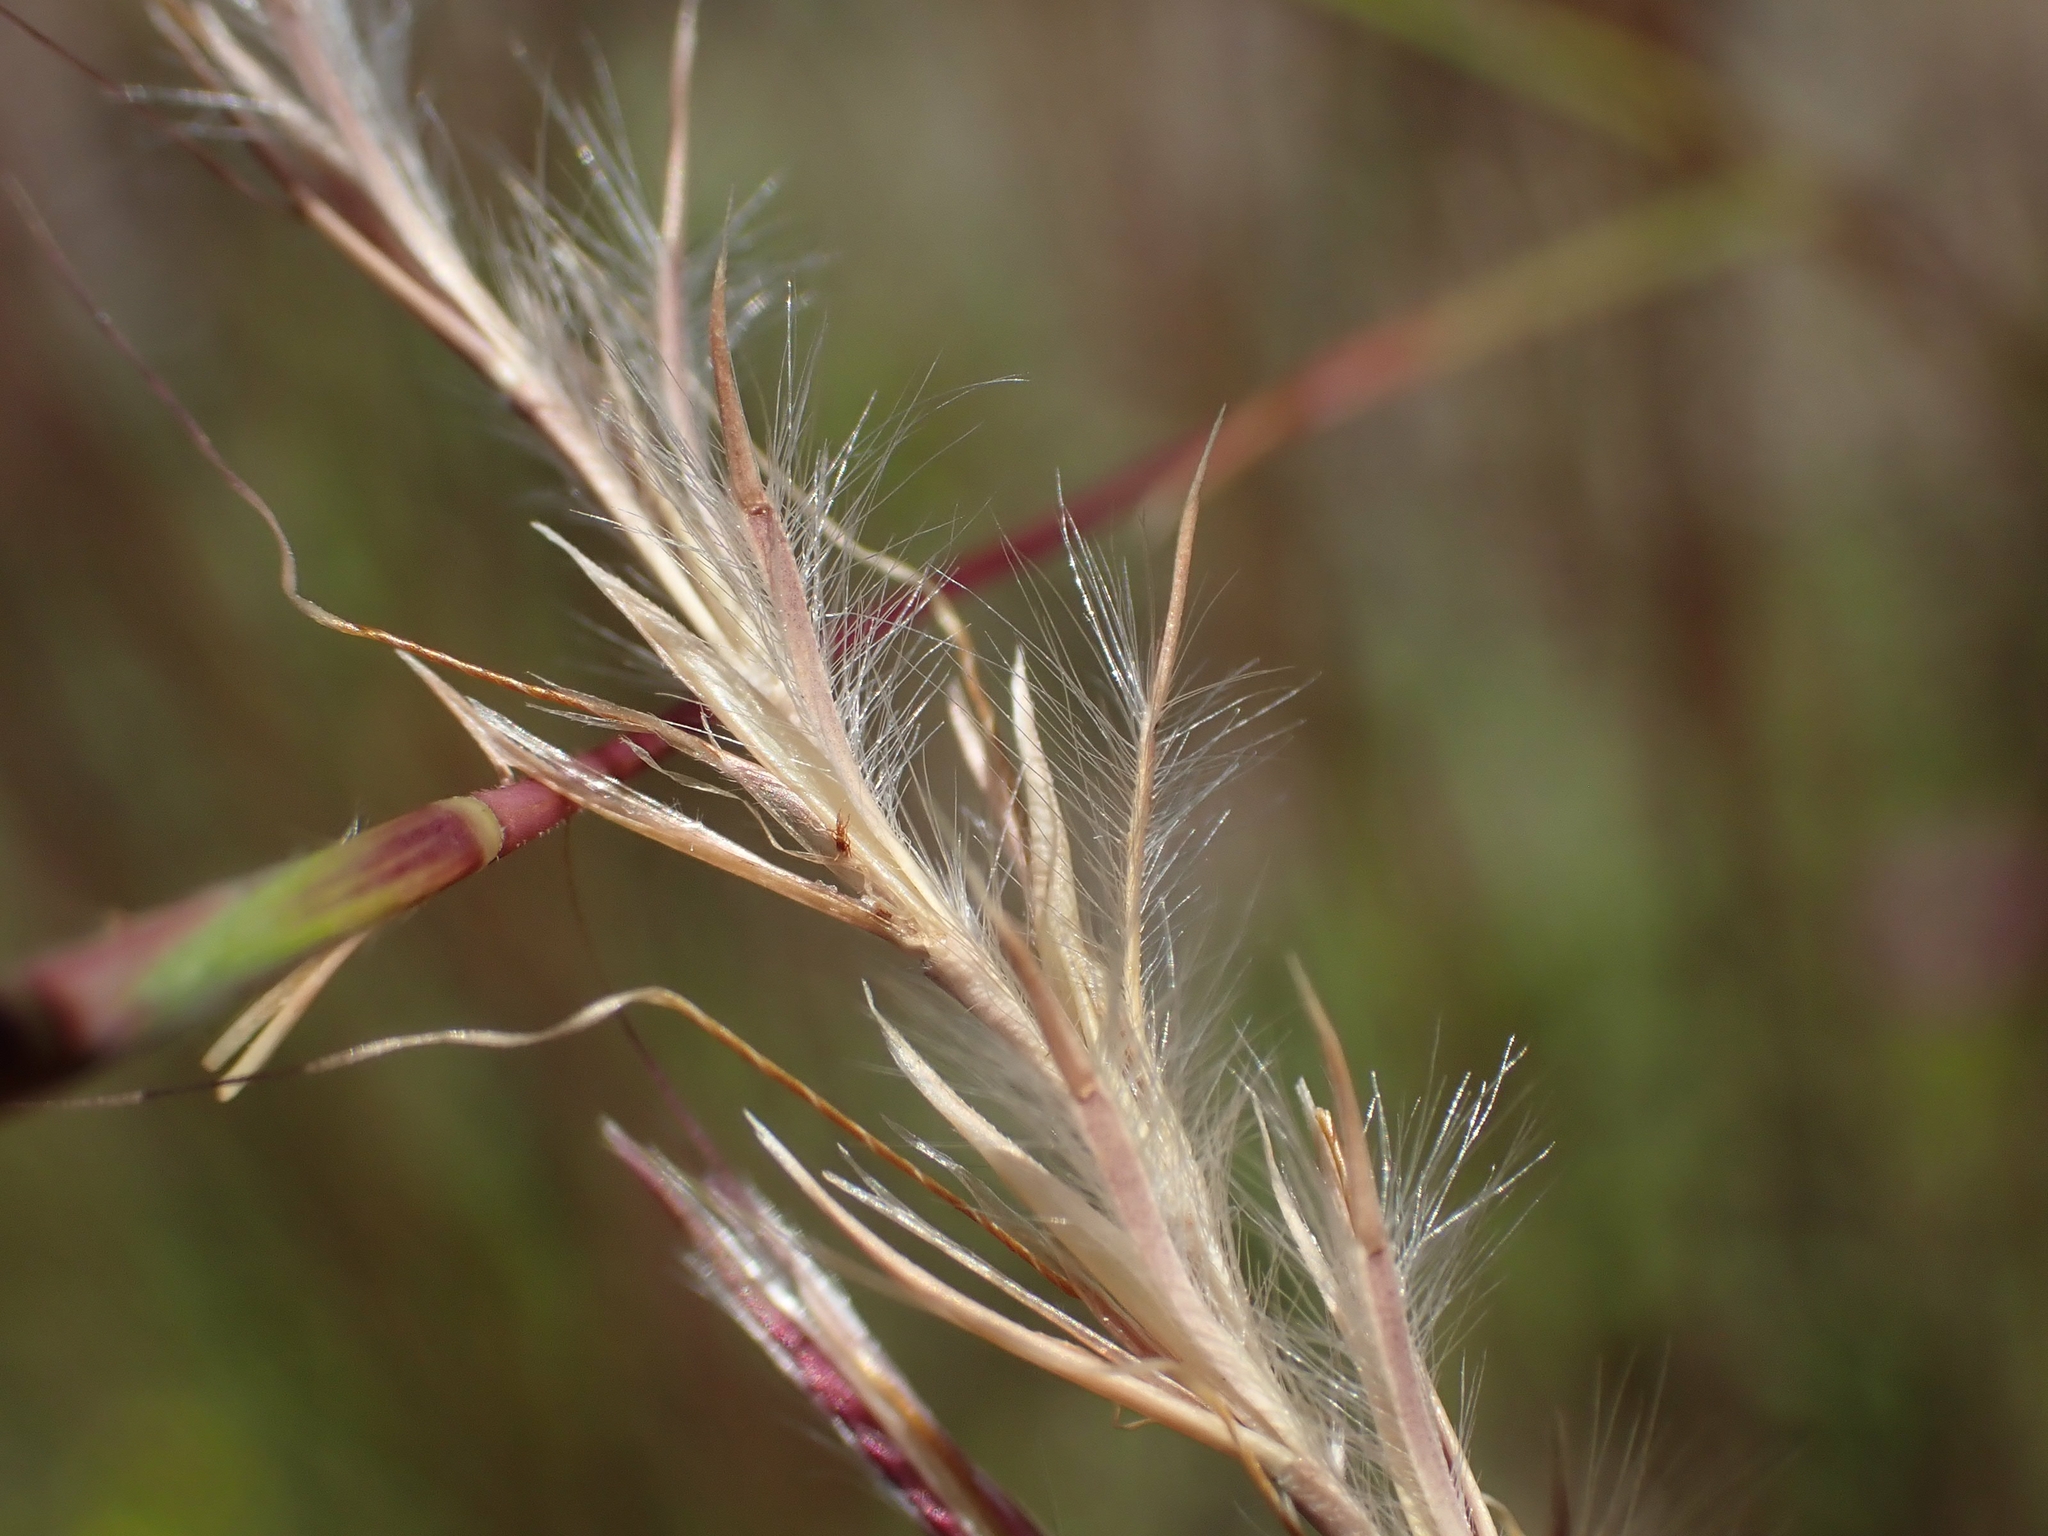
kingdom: Plantae
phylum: Tracheophyta
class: Liliopsida
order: Poales
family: Poaceae
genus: Schizachyrium
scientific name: Schizachyrium scoparium
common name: Little bluestem
